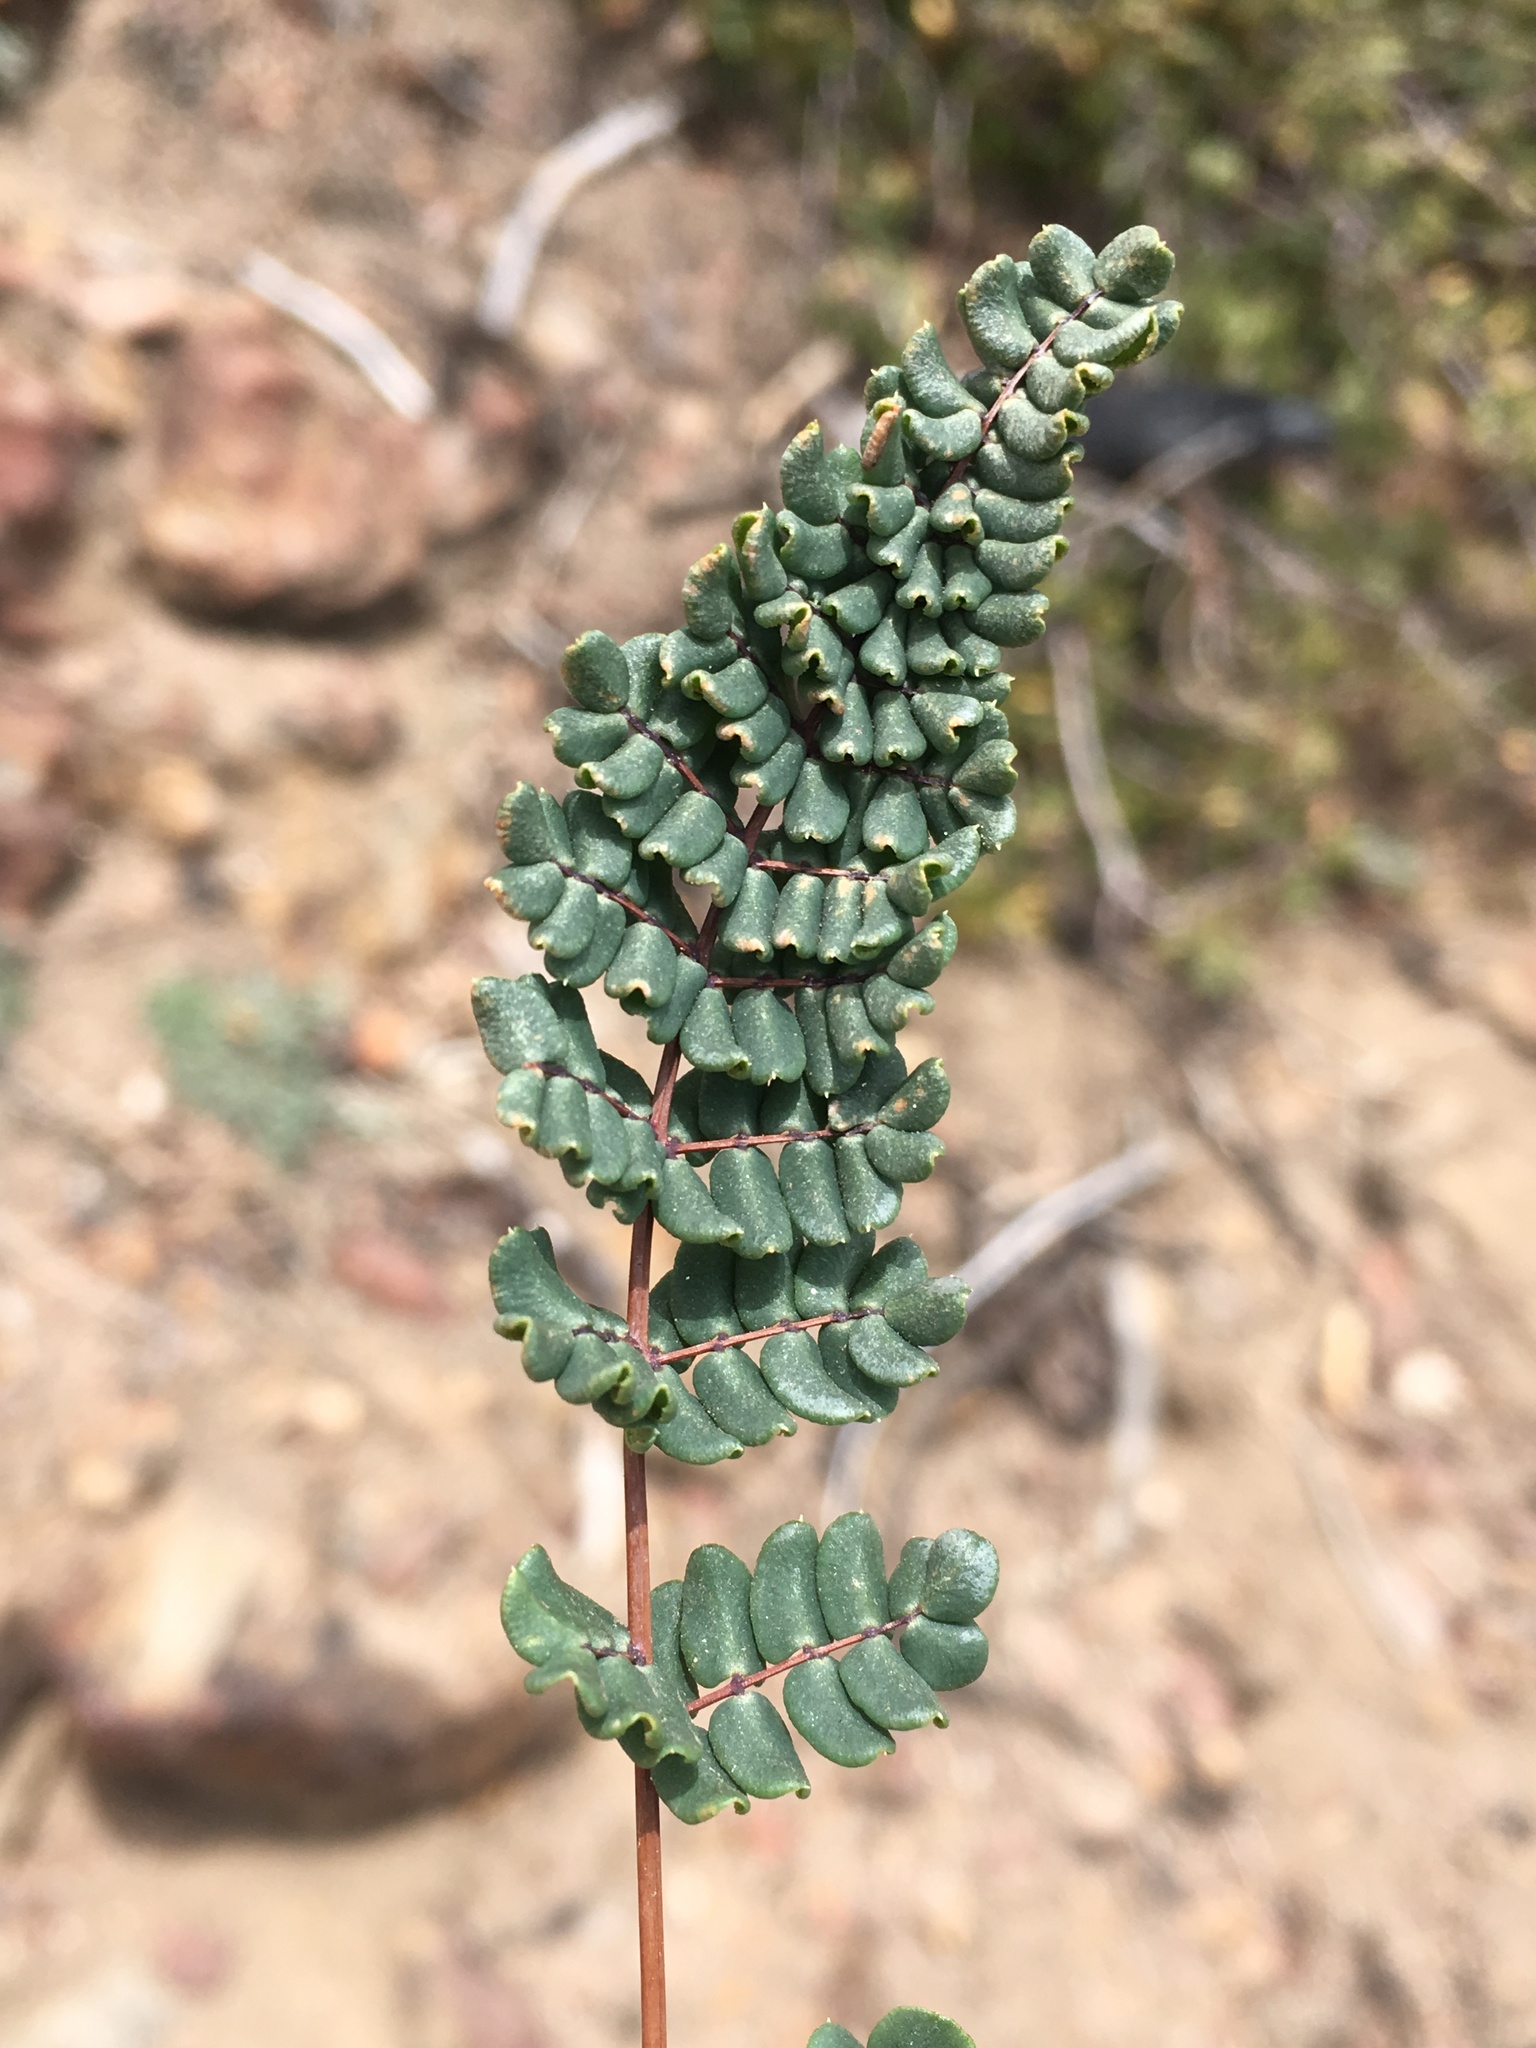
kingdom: Plantae
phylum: Tracheophyta
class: Polypodiopsida
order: Polypodiales
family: Pteridaceae
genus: Pellaea
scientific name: Pellaea mucronata
